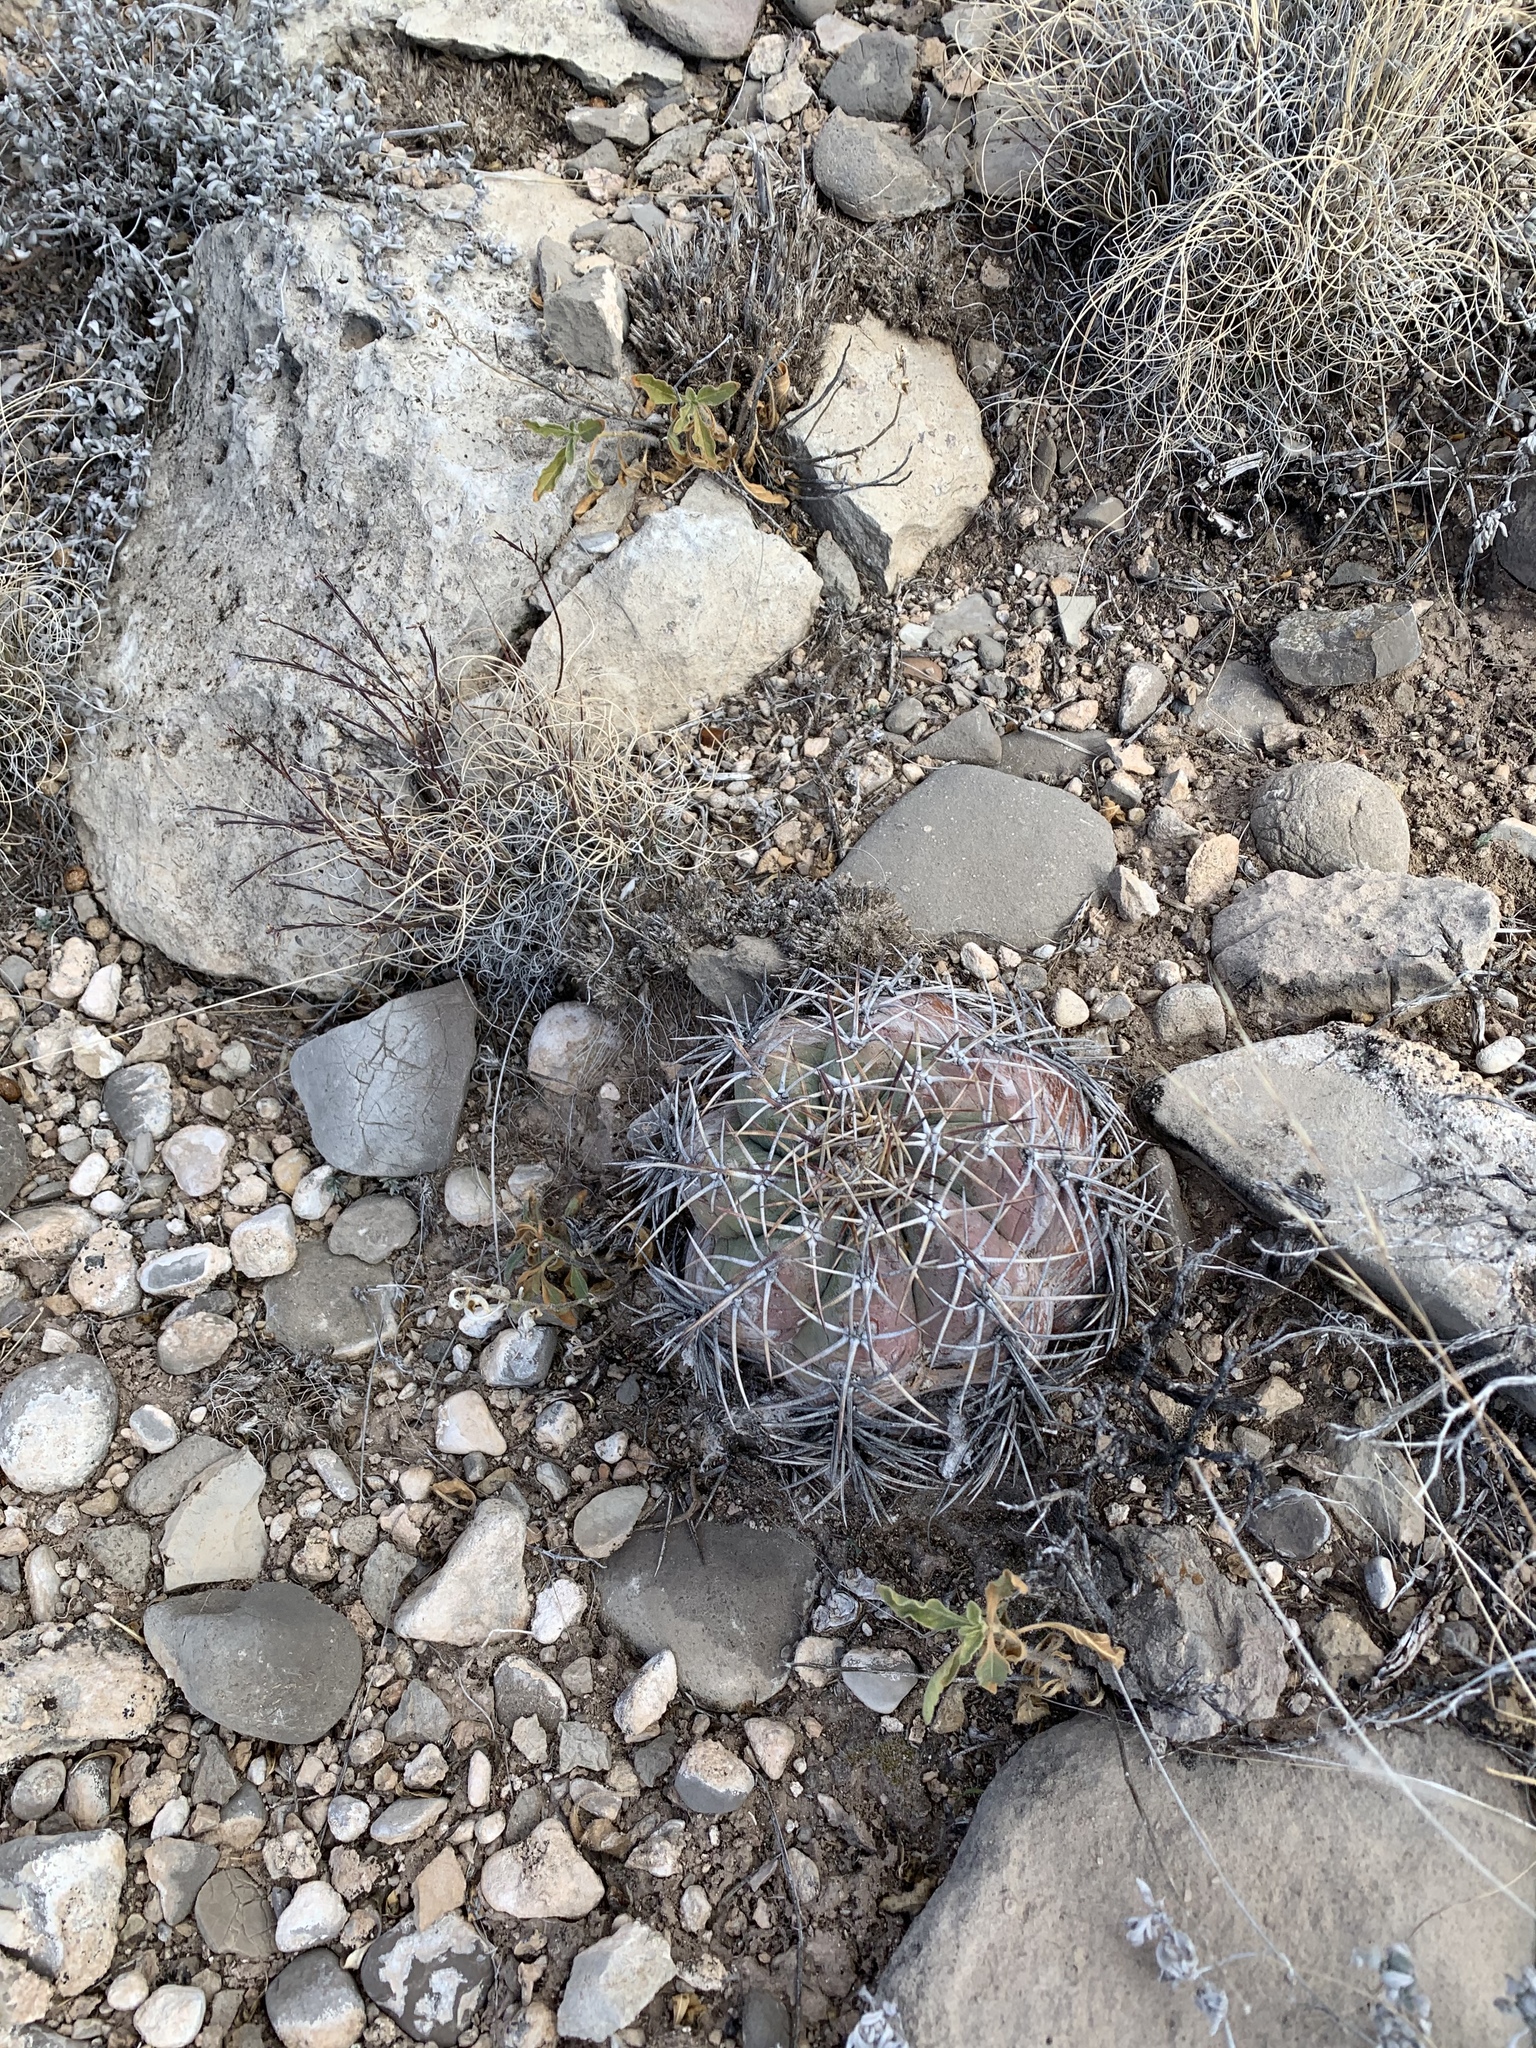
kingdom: Plantae
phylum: Tracheophyta
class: Magnoliopsida
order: Caryophyllales
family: Cactaceae
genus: Echinocactus
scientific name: Echinocactus horizonthalonius
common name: Devilshead
